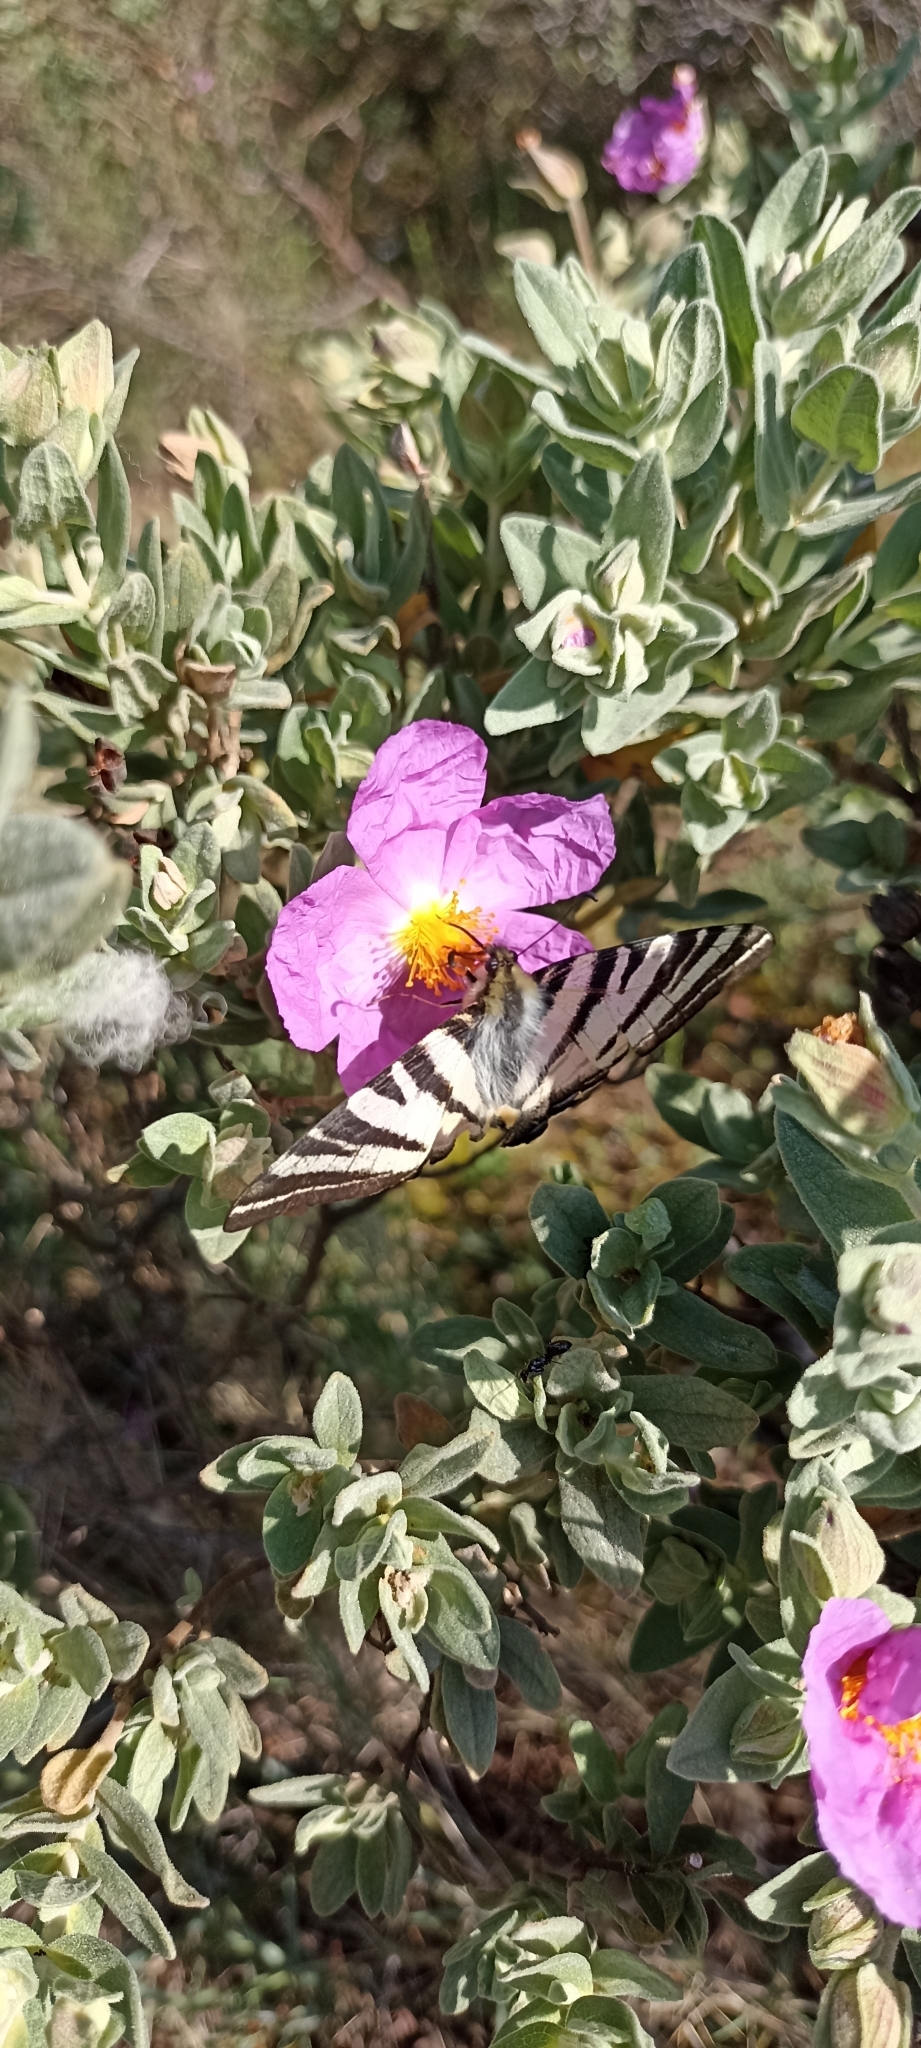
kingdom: Animalia
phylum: Arthropoda
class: Insecta
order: Lepidoptera
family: Papilionidae
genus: Iphiclides
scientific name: Iphiclides podalirius
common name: Scarce swallowtail
